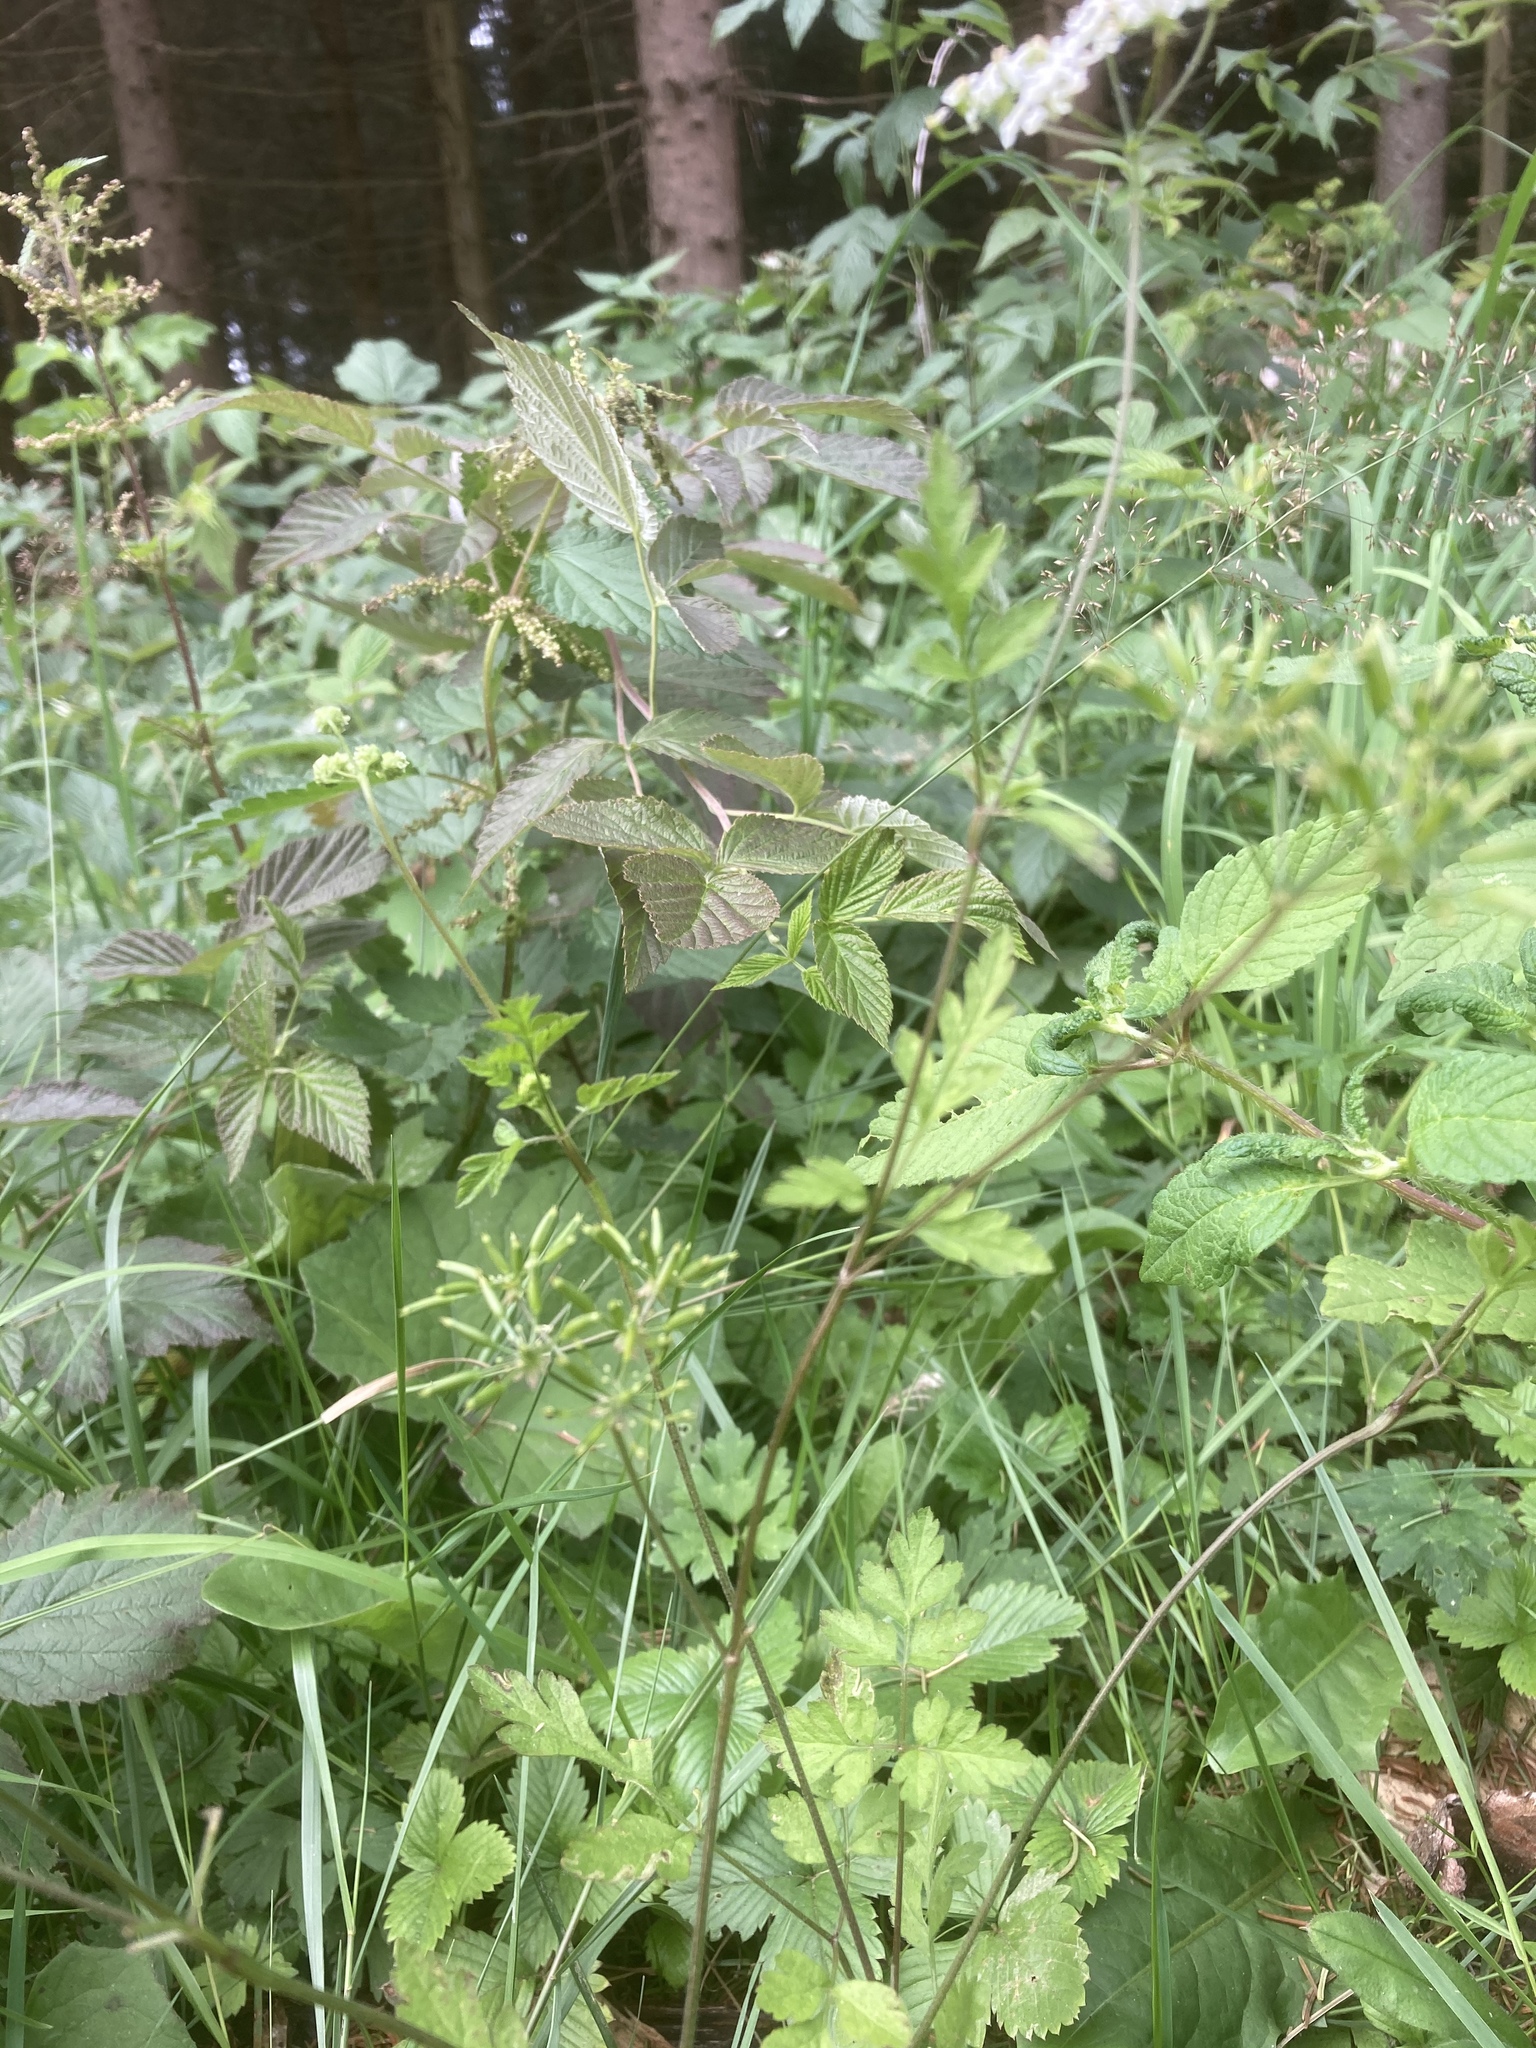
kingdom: Plantae
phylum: Tracheophyta
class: Magnoliopsida
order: Apiales
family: Apiaceae
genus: Chaerophyllum
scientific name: Chaerophyllum temulum
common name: Rough chervil
